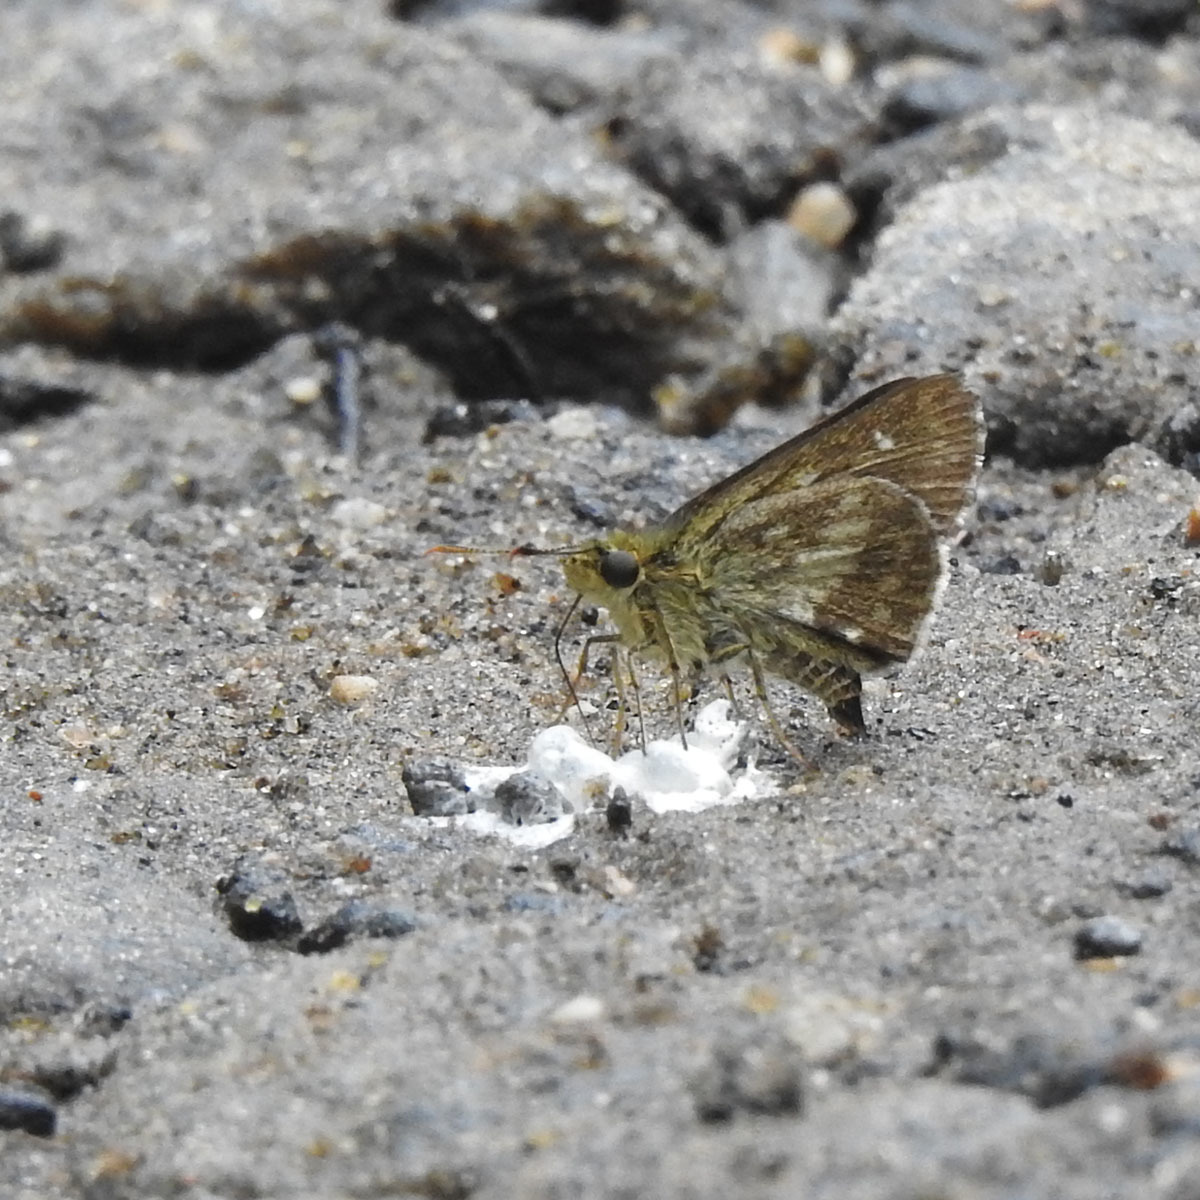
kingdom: Animalia
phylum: Arthropoda
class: Insecta
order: Lepidoptera
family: Hesperiidae
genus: Halpe
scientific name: Halpe homolea
